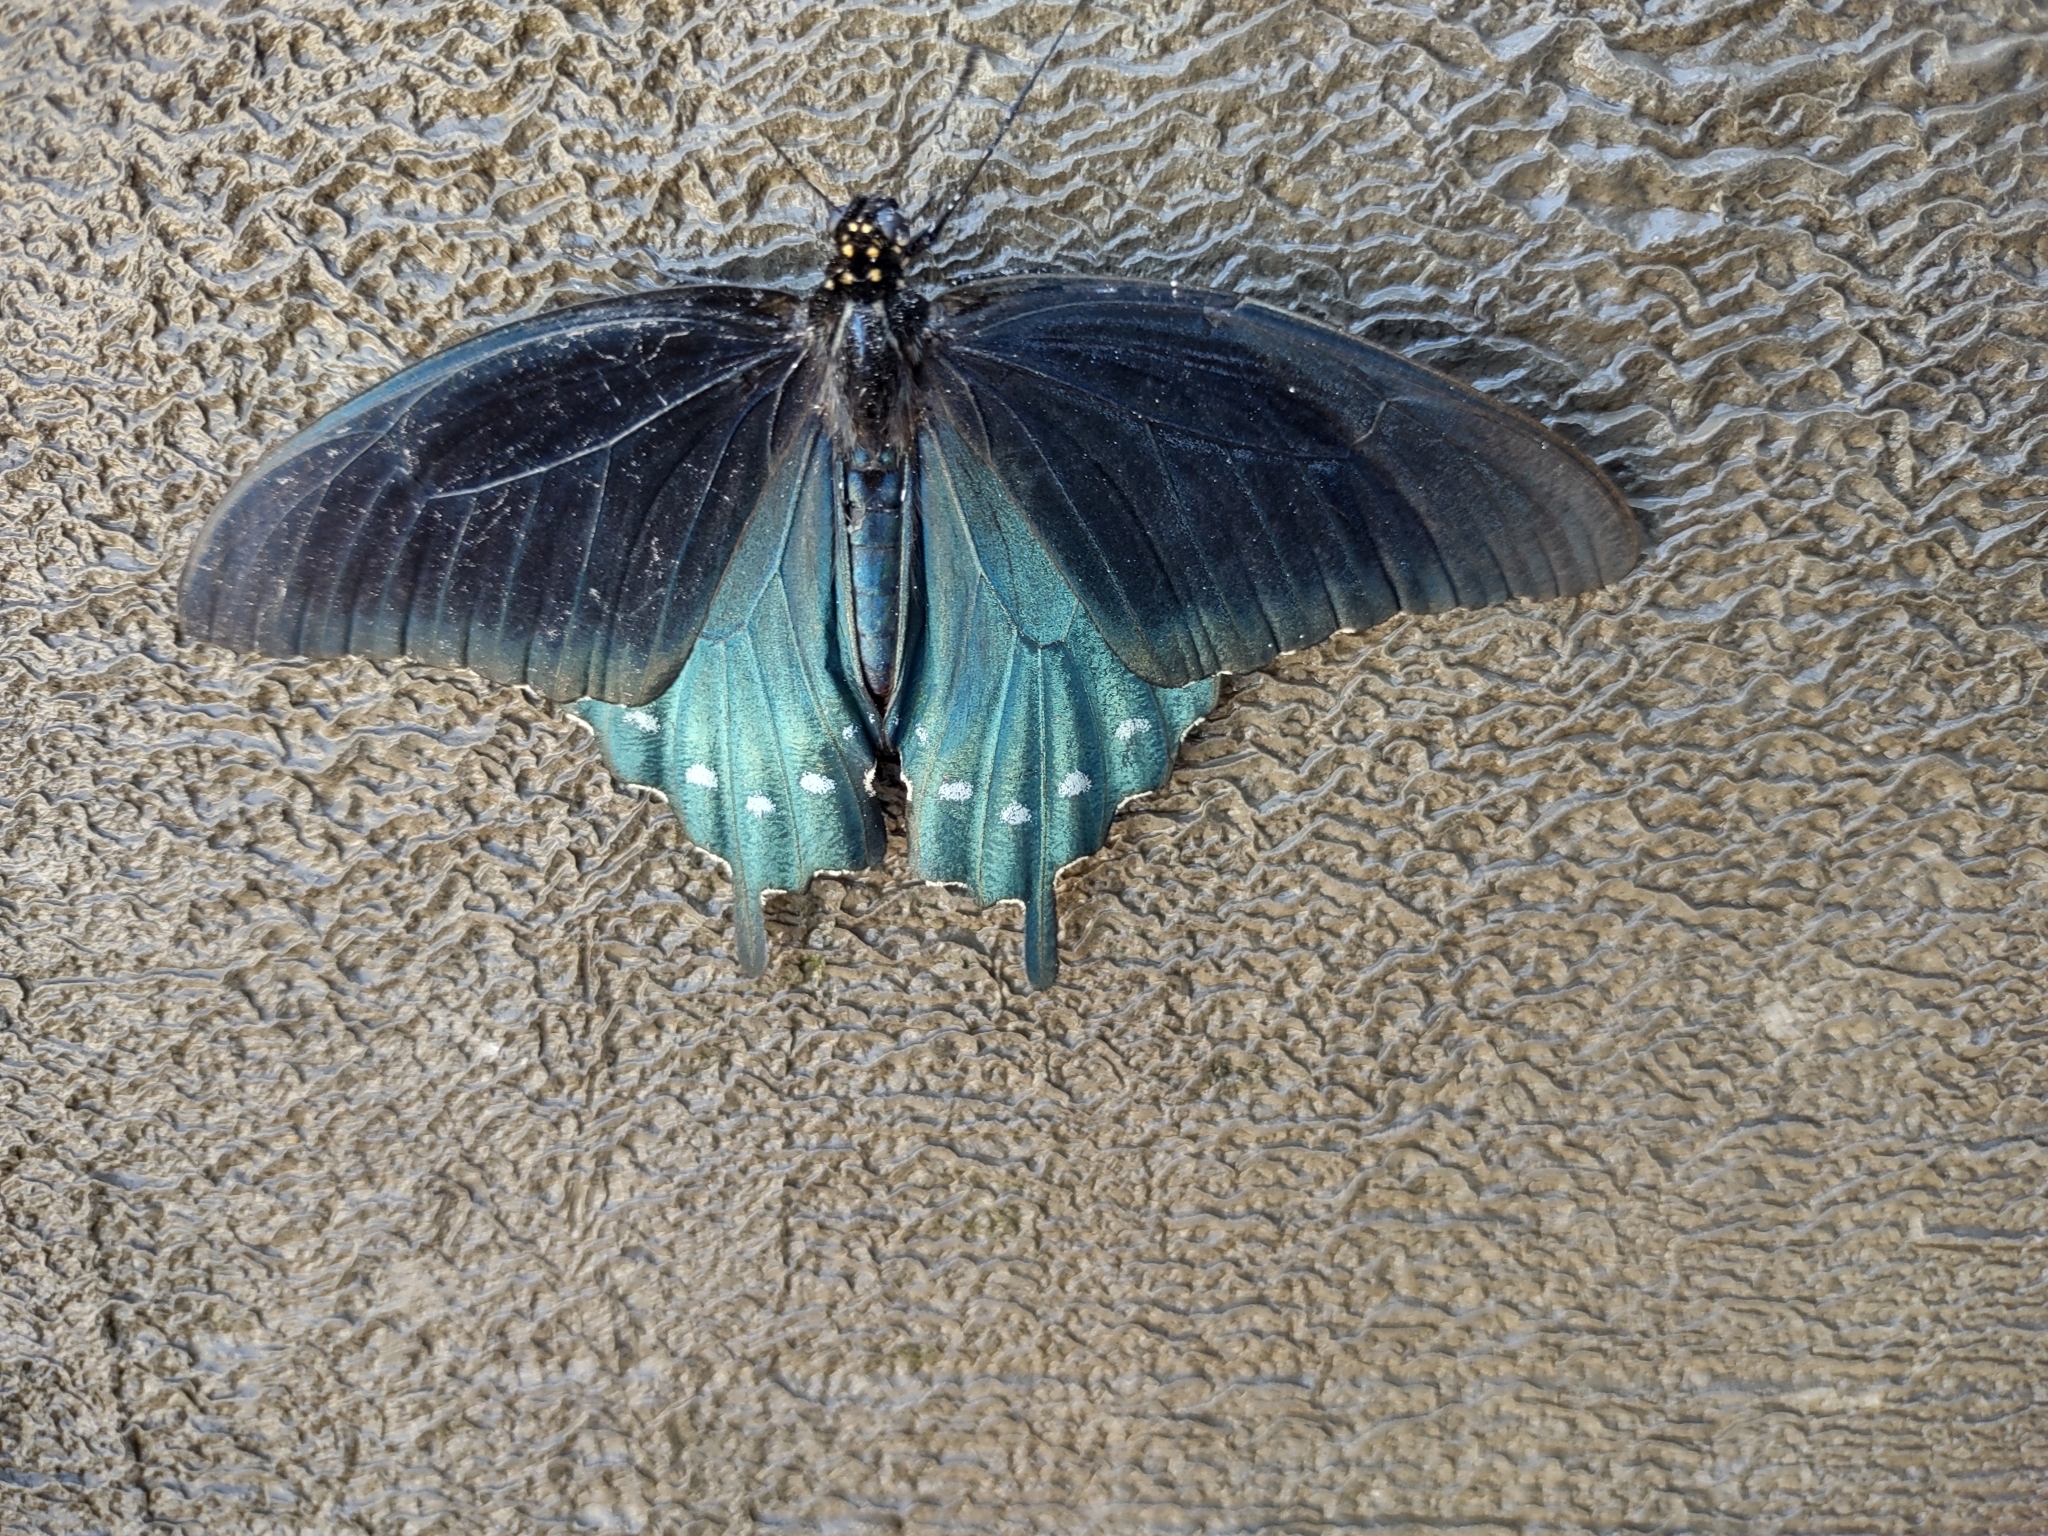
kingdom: Animalia
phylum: Arthropoda
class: Insecta
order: Lepidoptera
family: Papilionidae
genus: Battus
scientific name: Battus philenor
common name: Pipevine swallowtail
